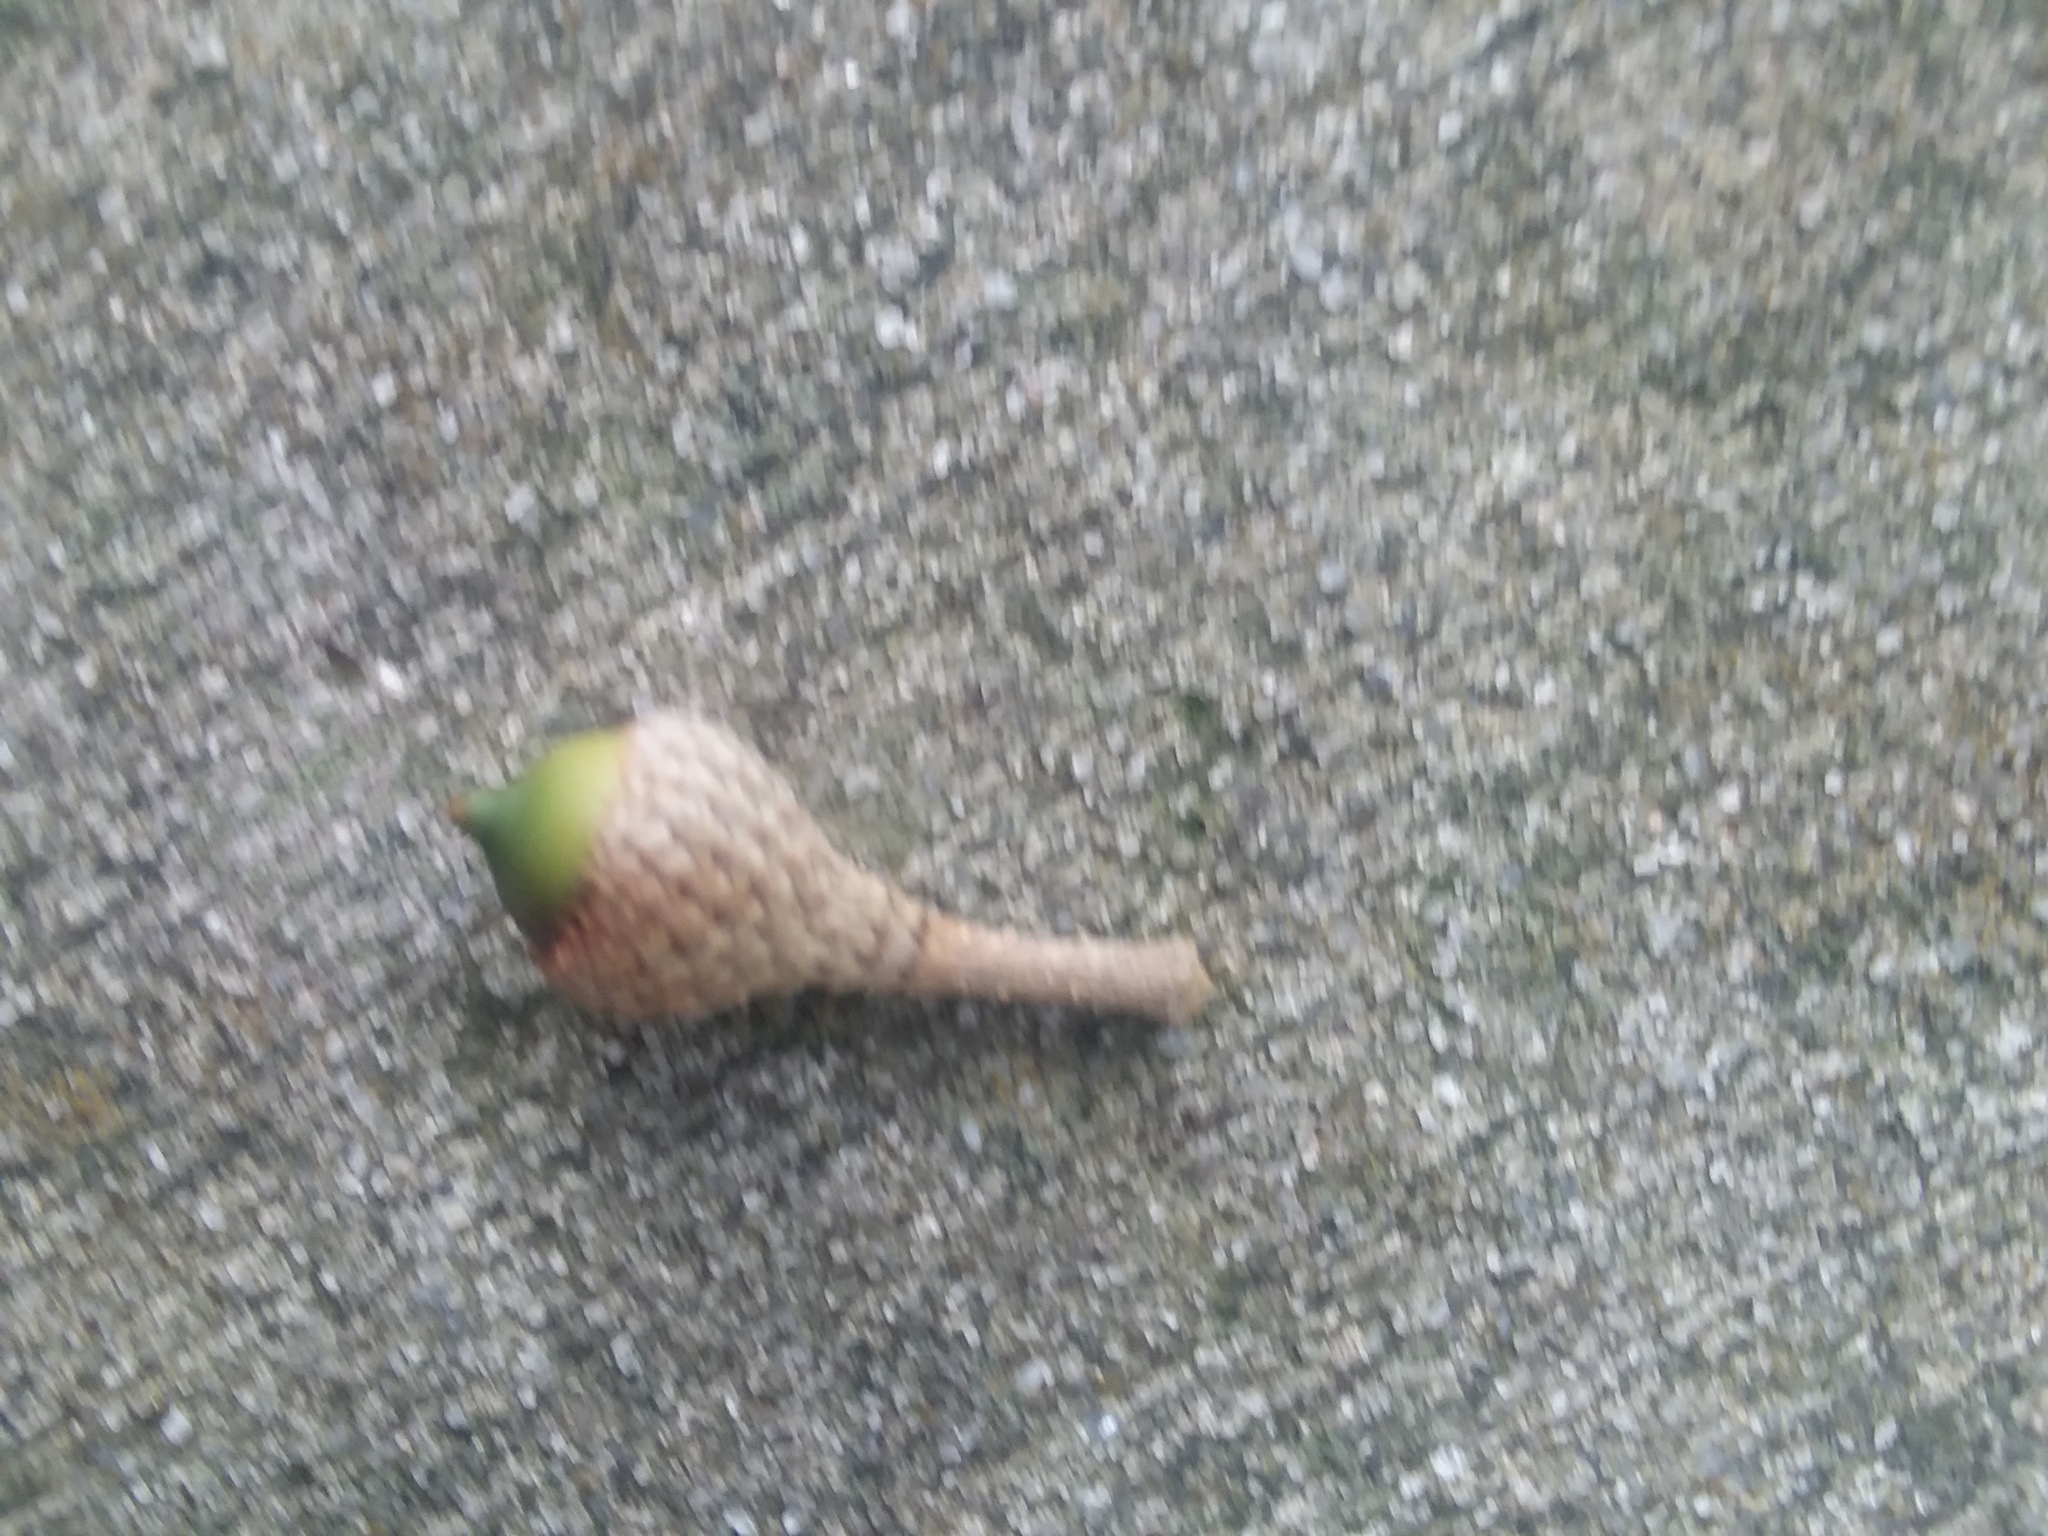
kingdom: Plantae
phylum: Tracheophyta
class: Magnoliopsida
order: Fagales
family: Fagaceae
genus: Quercus
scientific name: Quercus virginiana
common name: Southern live oak
